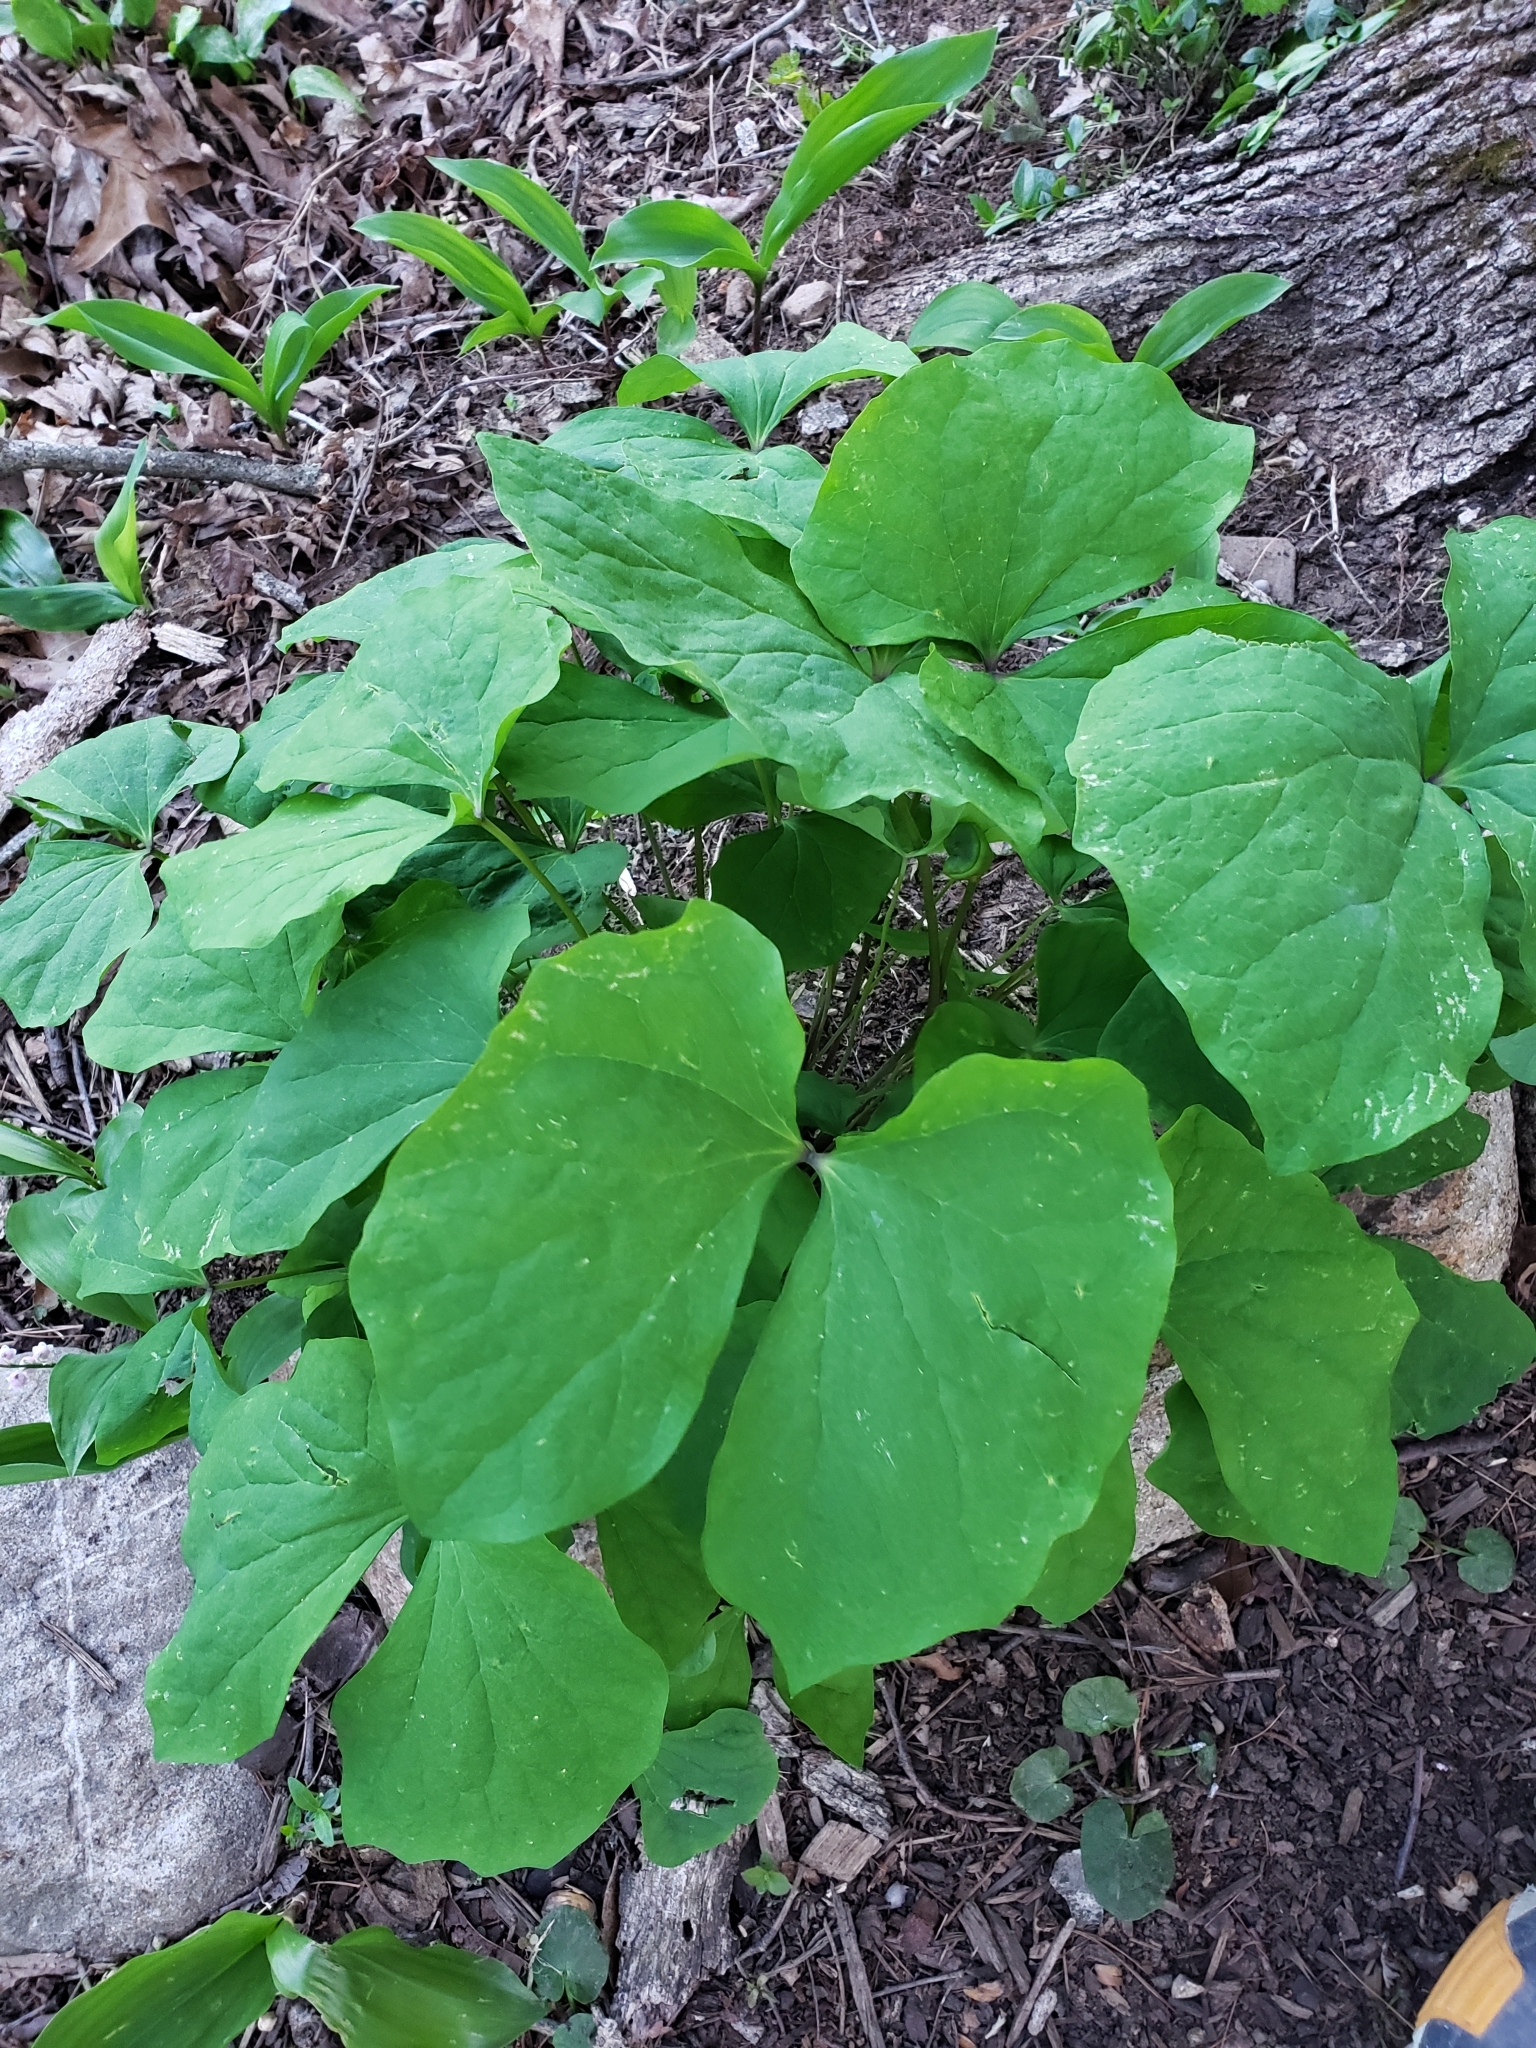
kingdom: Plantae
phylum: Tracheophyta
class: Magnoliopsida
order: Ranunculales
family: Berberidaceae
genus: Jeffersonia
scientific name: Jeffersonia diphylla
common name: Rheumatism-root
